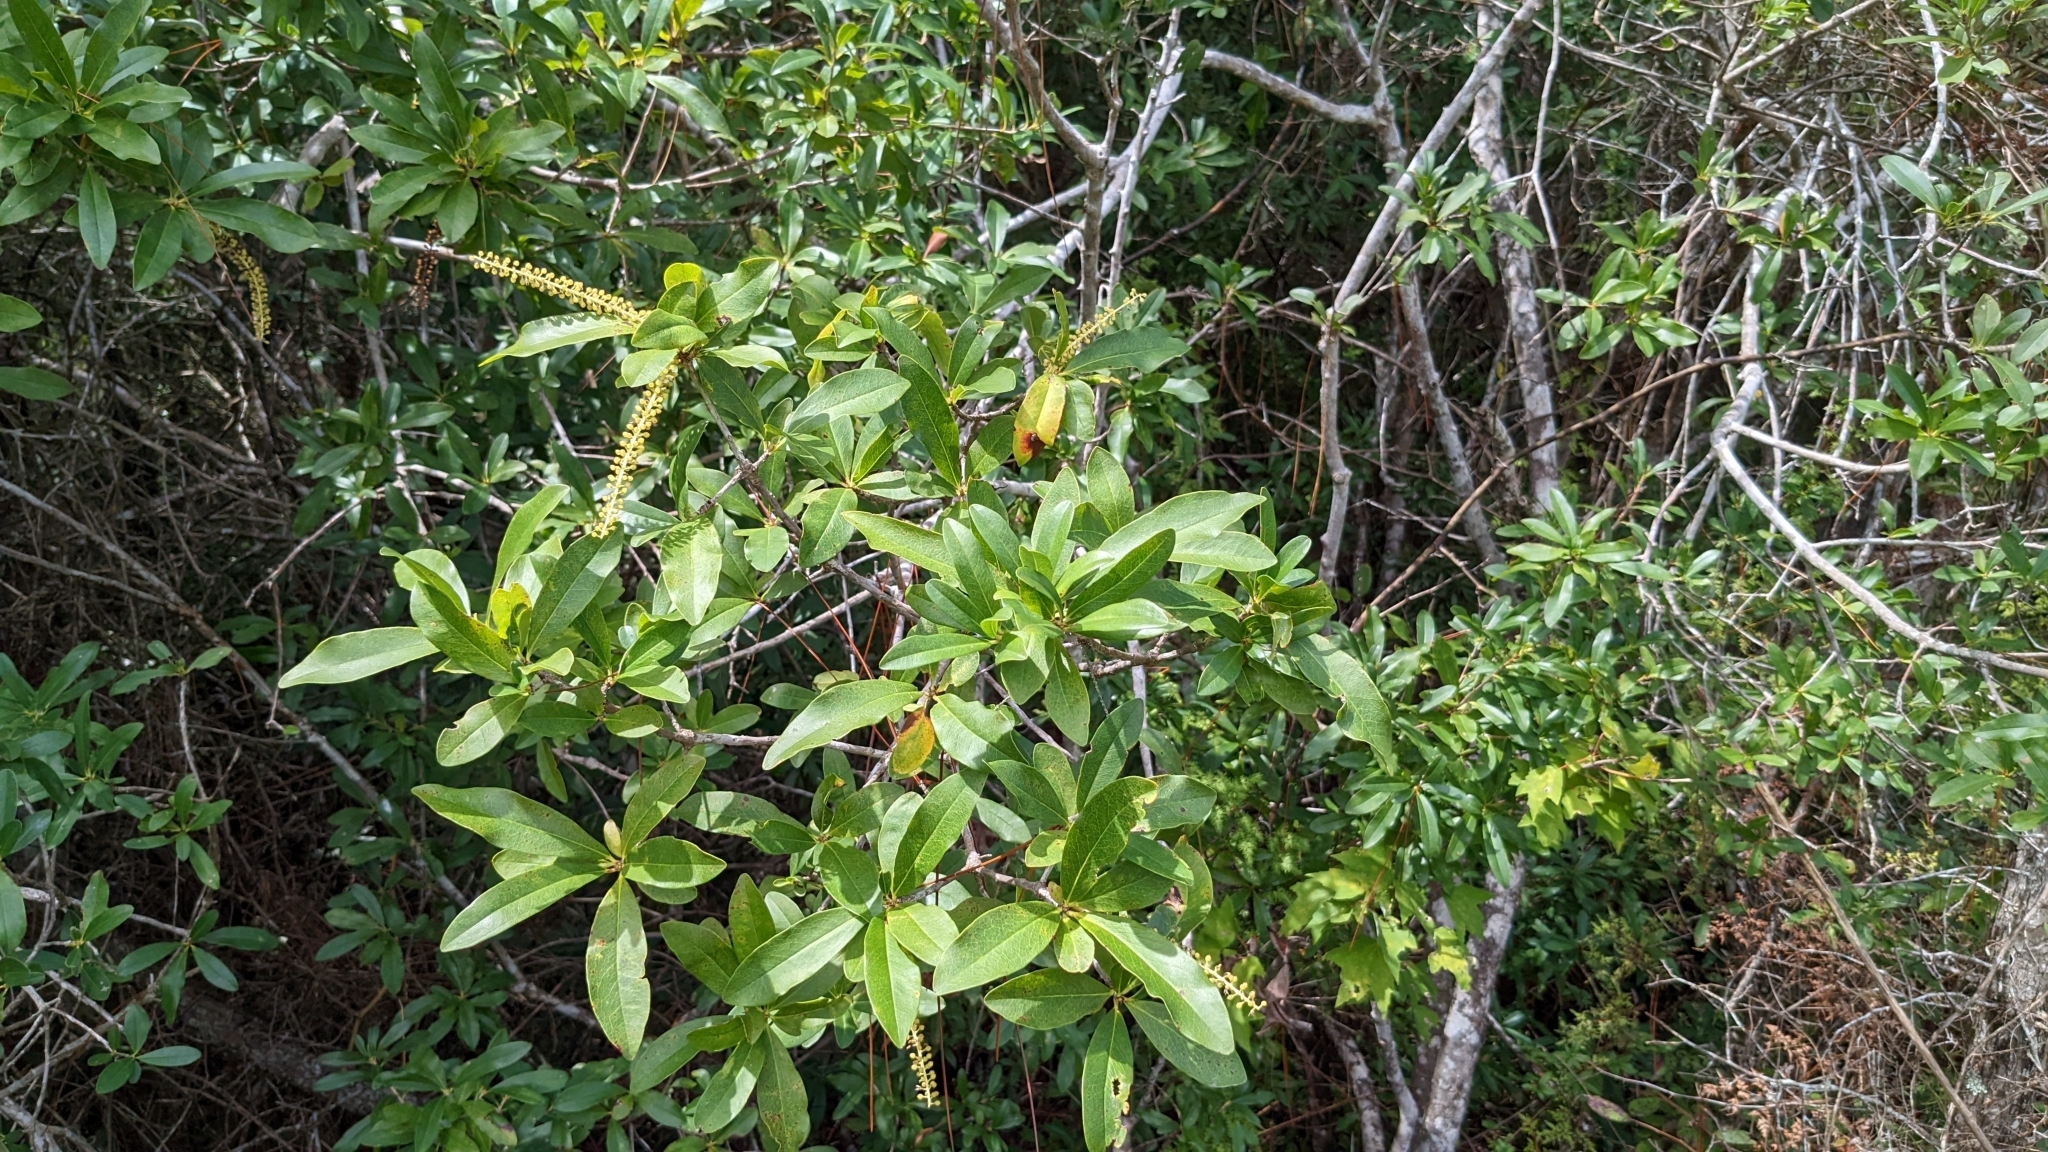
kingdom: Plantae
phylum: Tracheophyta
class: Magnoliopsida
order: Ericales
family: Cyrillaceae
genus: Cyrilla
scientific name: Cyrilla racemiflora
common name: Black titi
